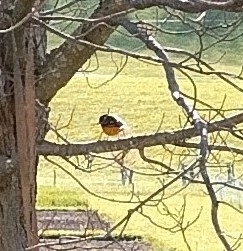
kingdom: Animalia
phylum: Chordata
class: Aves
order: Passeriformes
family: Icteridae
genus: Icterus
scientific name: Icterus galbula
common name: Baltimore oriole
